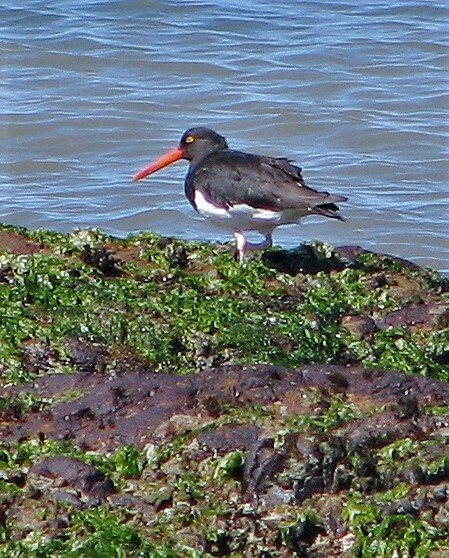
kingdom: Animalia
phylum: Chordata
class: Aves
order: Charadriiformes
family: Haematopodidae
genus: Haematopus
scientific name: Haematopus leucopodus
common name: Magellanic oystercatcher
